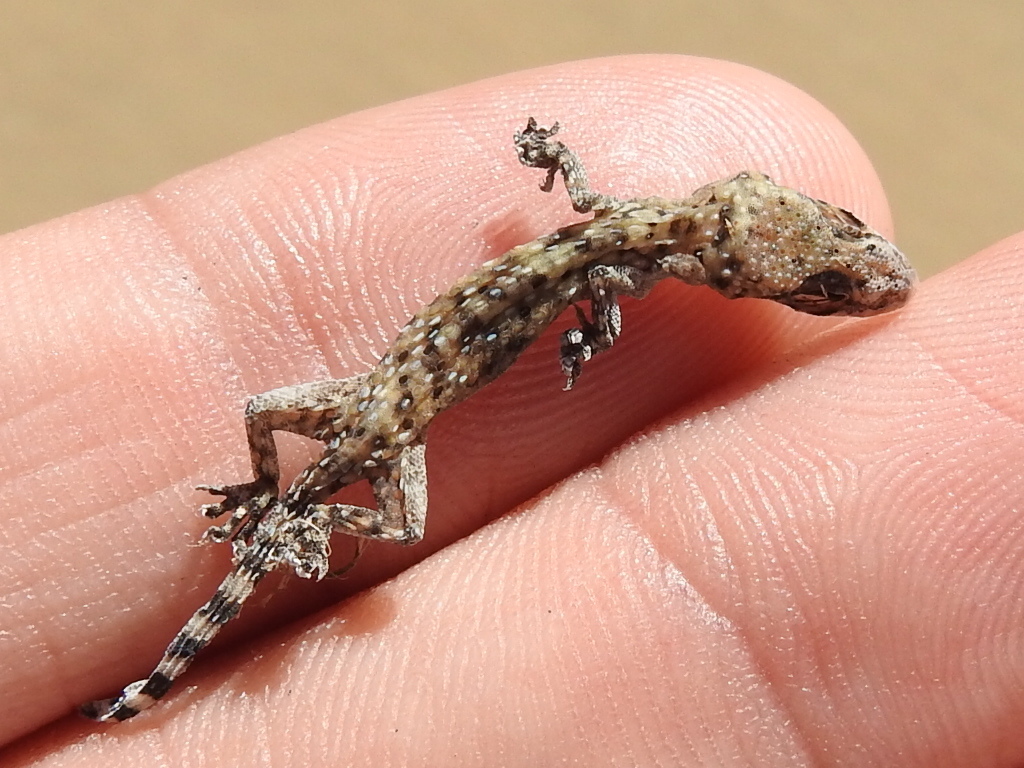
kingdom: Animalia
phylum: Chordata
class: Squamata
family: Gekkonidae
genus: Hemidactylus
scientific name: Hemidactylus turcicus
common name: Turkish gecko
